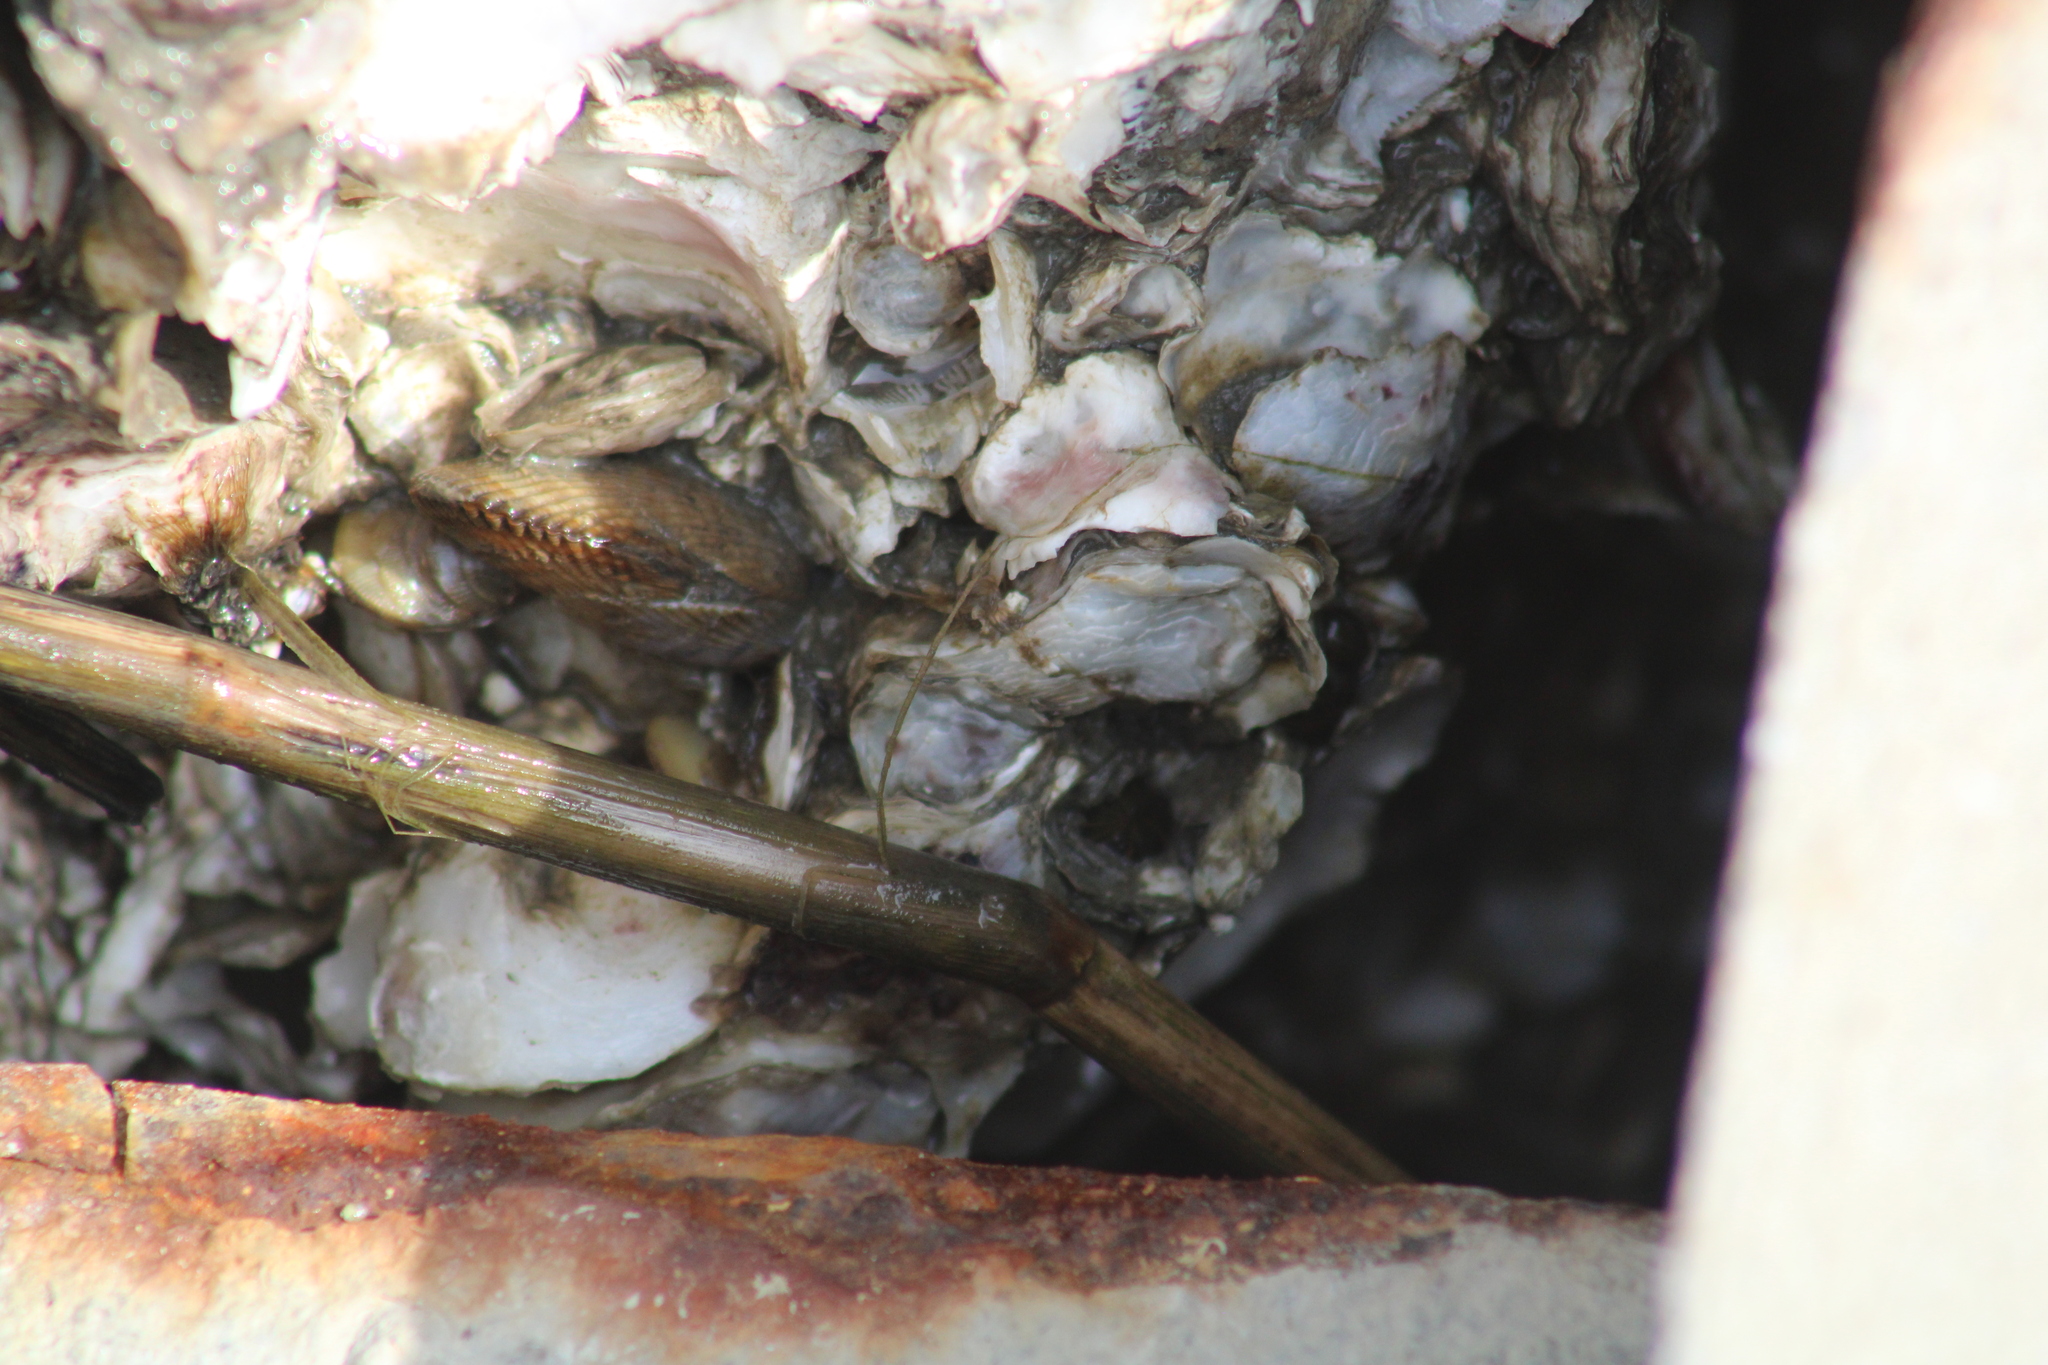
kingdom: Animalia
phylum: Mollusca
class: Bivalvia
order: Mytilida
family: Mytilidae
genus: Geukensia
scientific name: Geukensia demissa
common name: Ribbed mussel
